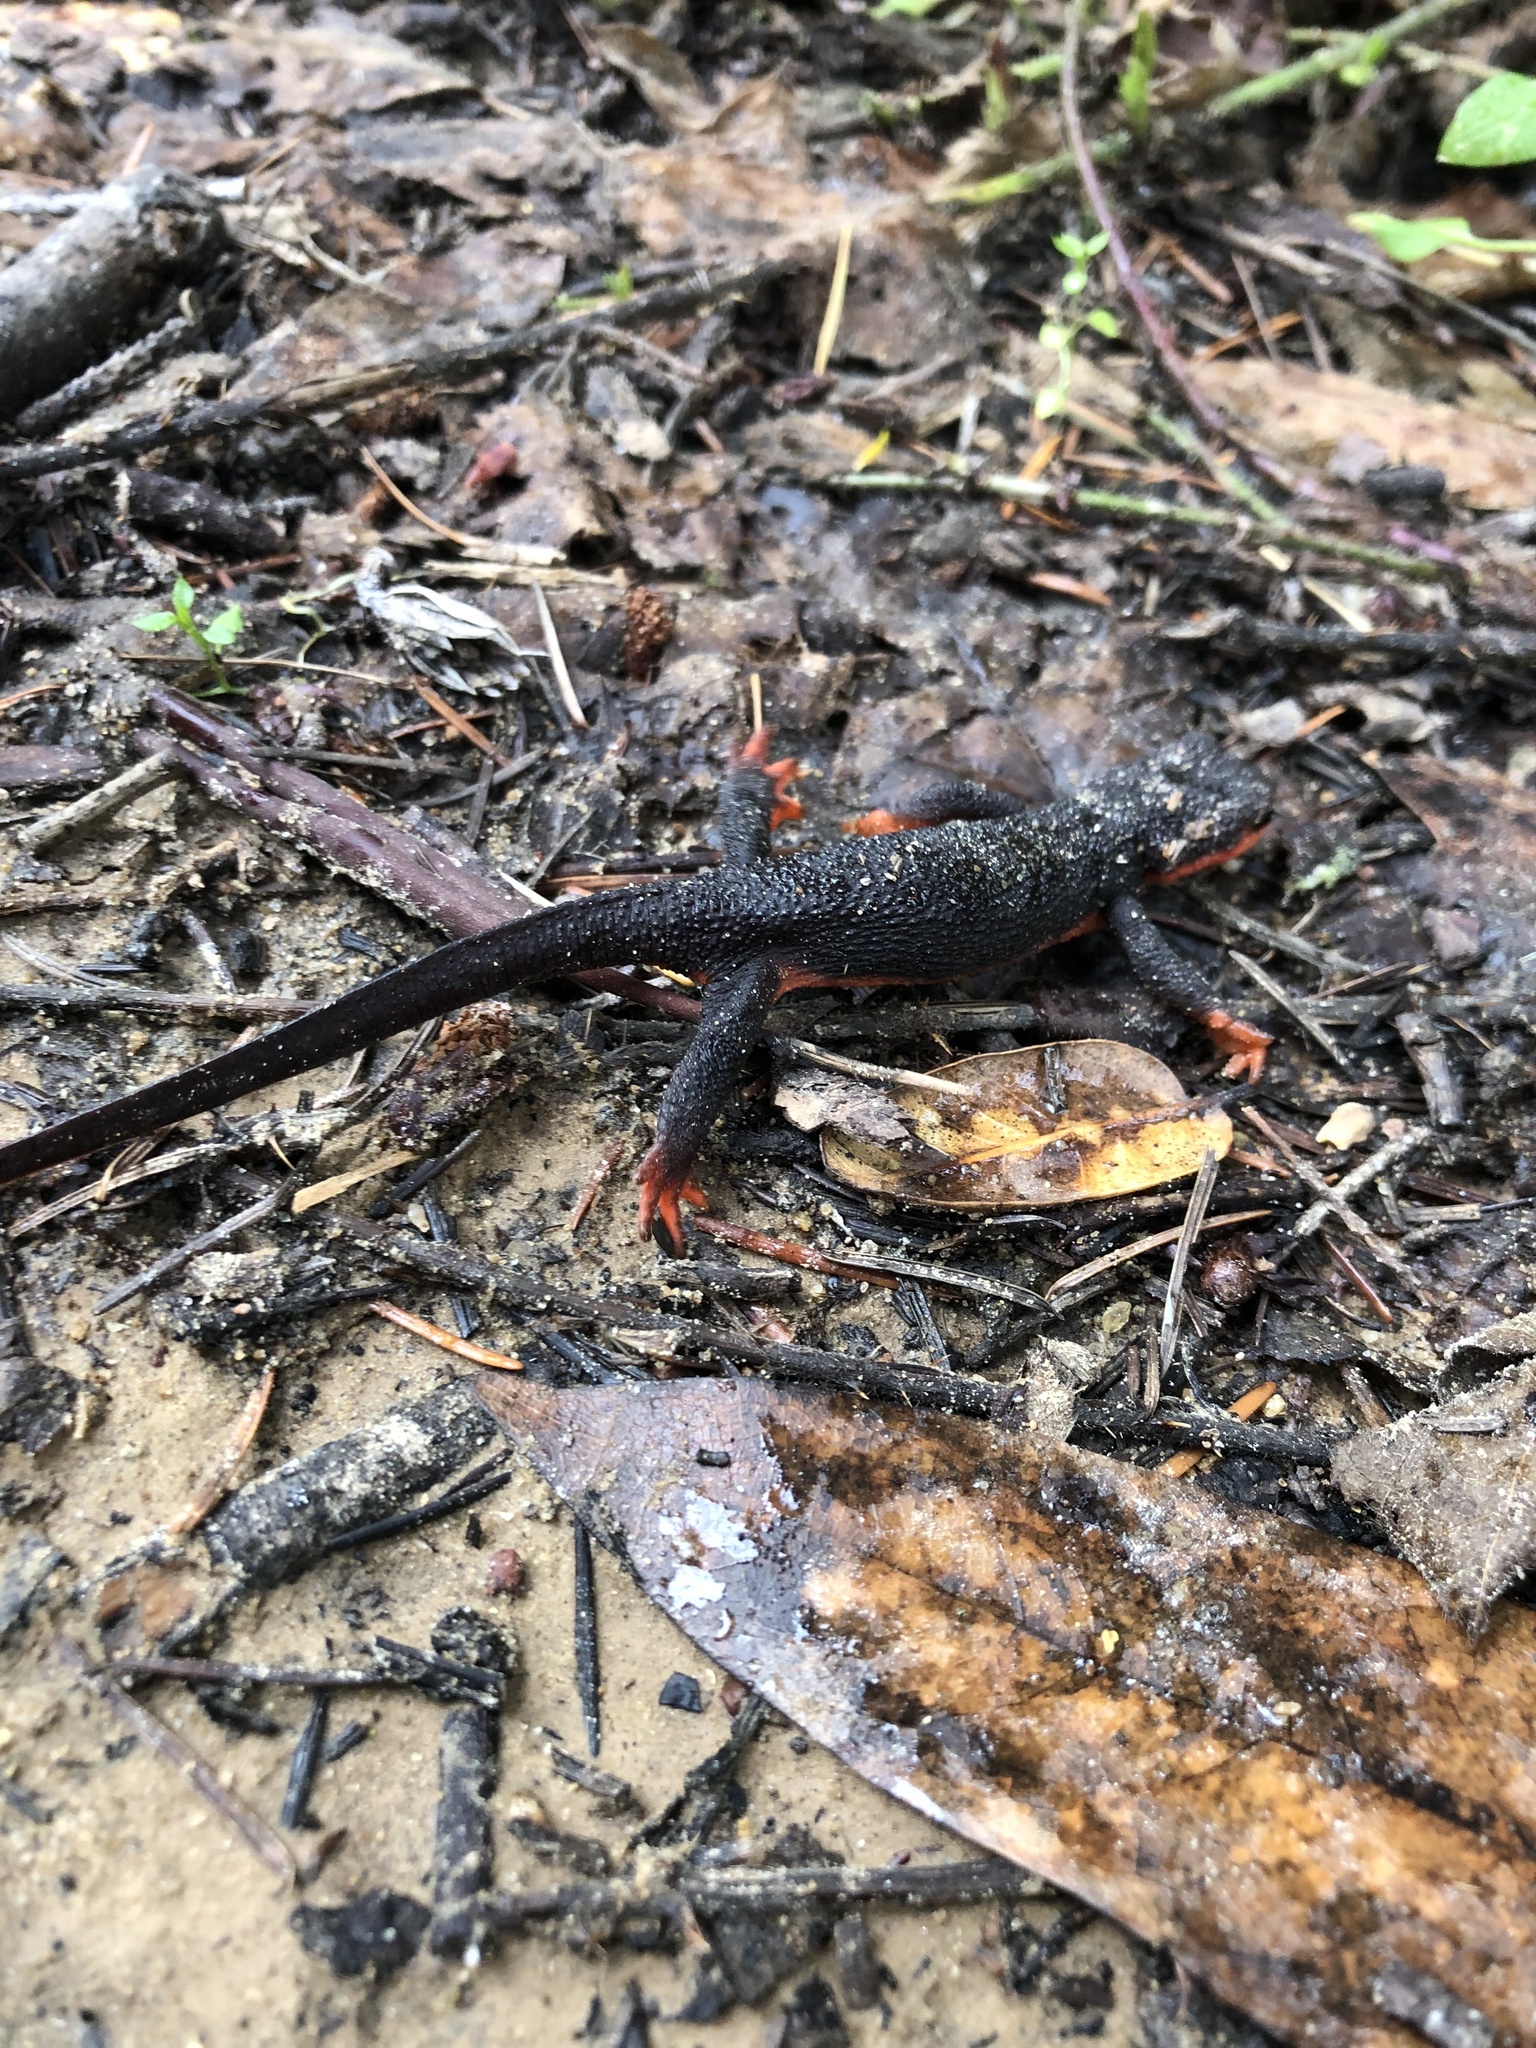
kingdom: Animalia
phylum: Chordata
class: Amphibia
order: Caudata
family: Salamandridae
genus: Taricha
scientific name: Taricha rivularis
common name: Red-bellied newt
